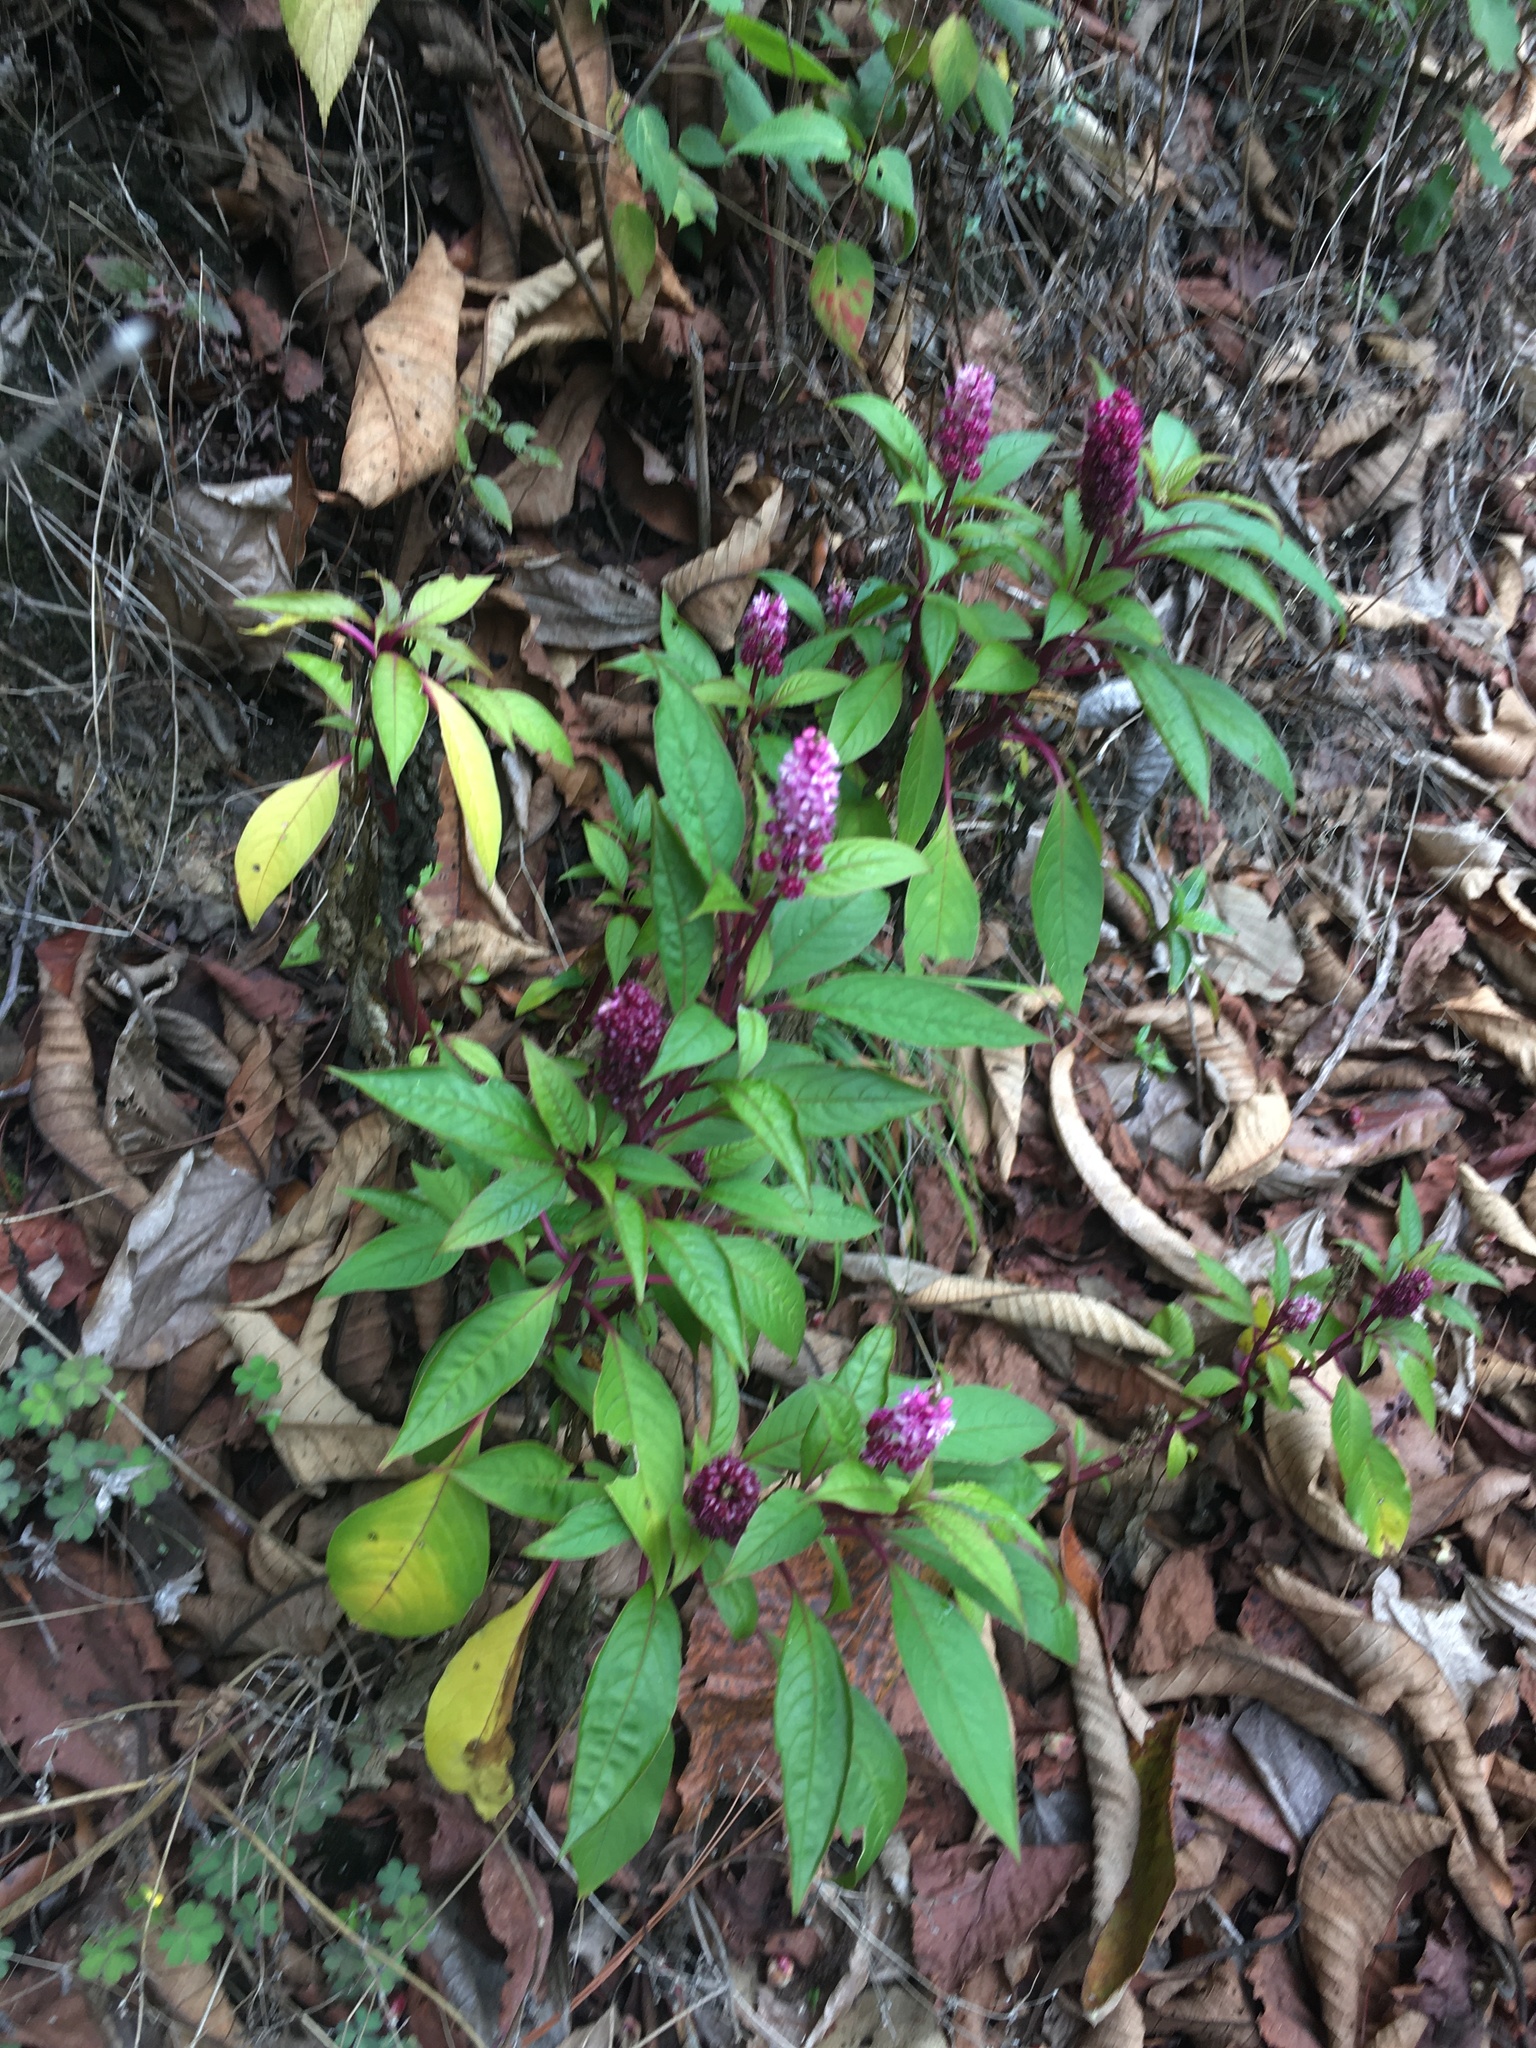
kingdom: Plantae
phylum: Tracheophyta
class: Magnoliopsida
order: Caryophyllales
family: Phytolaccaceae
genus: Phytolacca
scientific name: Phytolacca rugosa
